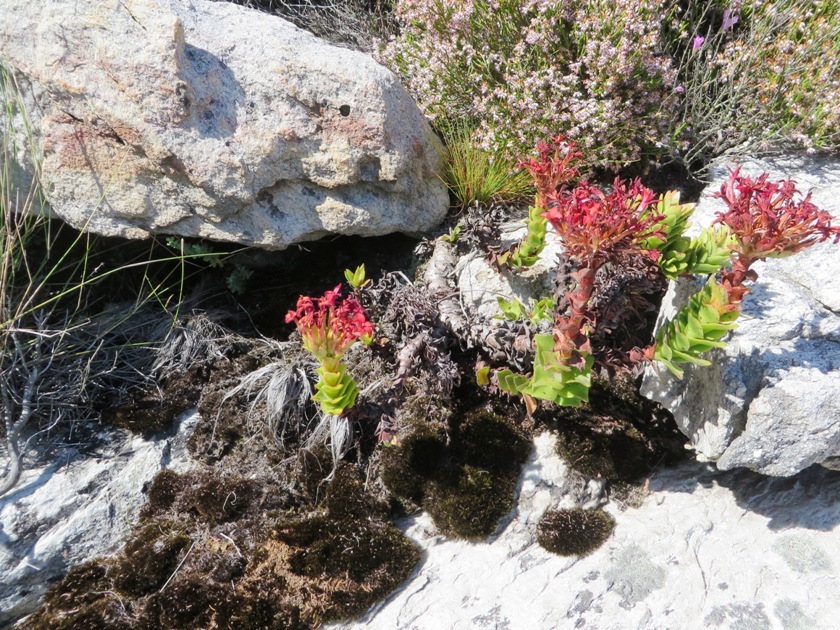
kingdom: Plantae
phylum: Tracheophyta
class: Magnoliopsida
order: Saxifragales
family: Crassulaceae
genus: Crassula
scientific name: Crassula coccinea
